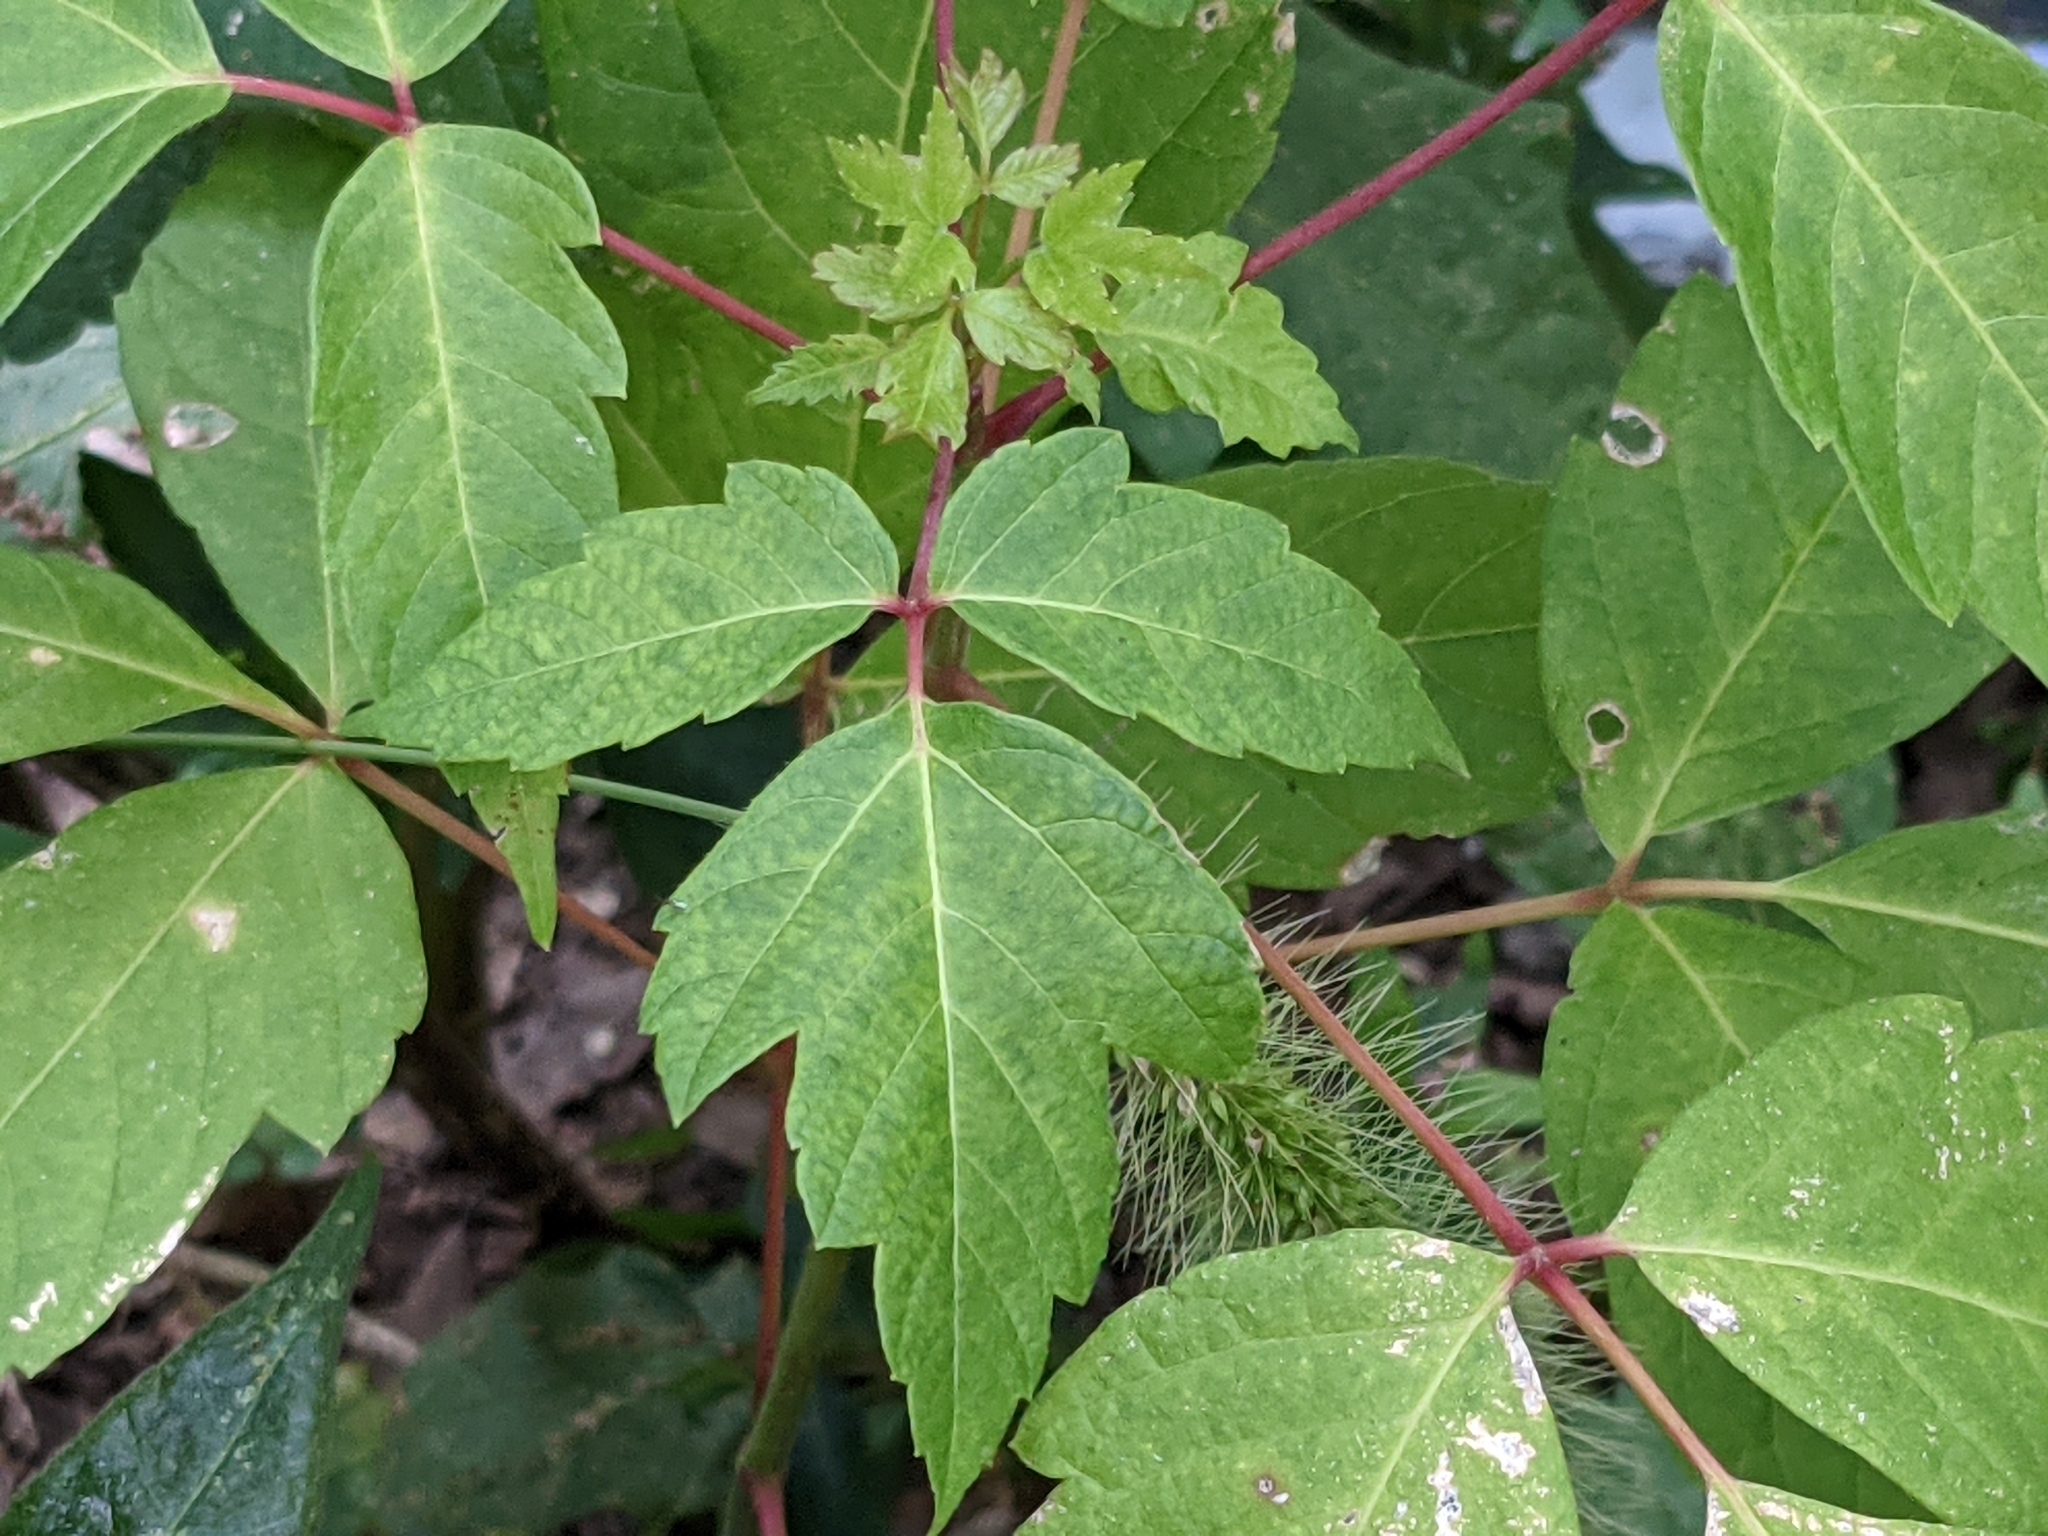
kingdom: Plantae
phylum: Tracheophyta
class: Magnoliopsida
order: Sapindales
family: Anacardiaceae
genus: Toxicodendron
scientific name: Toxicodendron radicans
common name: Poison ivy
